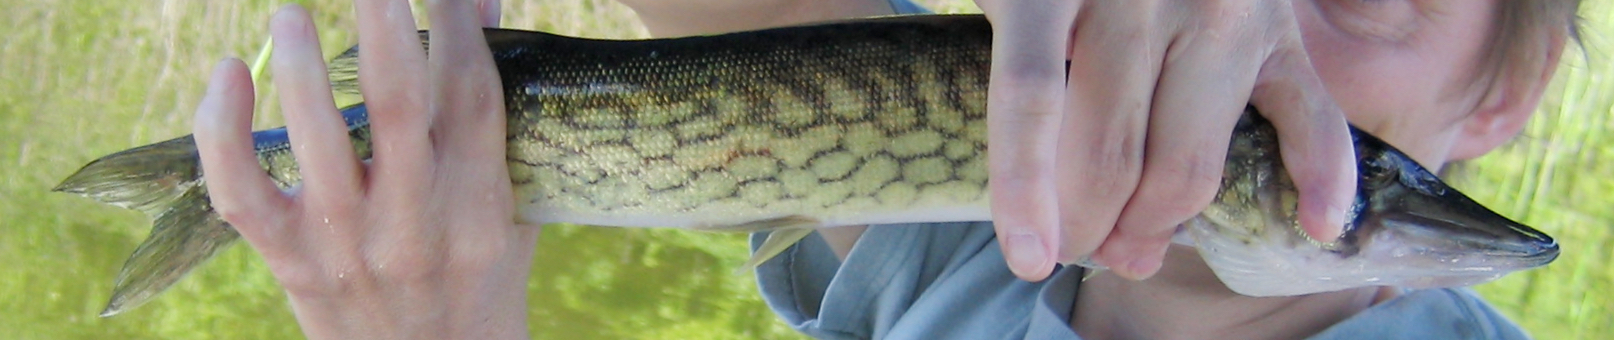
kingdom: Animalia
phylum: Chordata
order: Esociformes
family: Esocidae
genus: Esox
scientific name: Esox niger
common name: Chain pickerel
